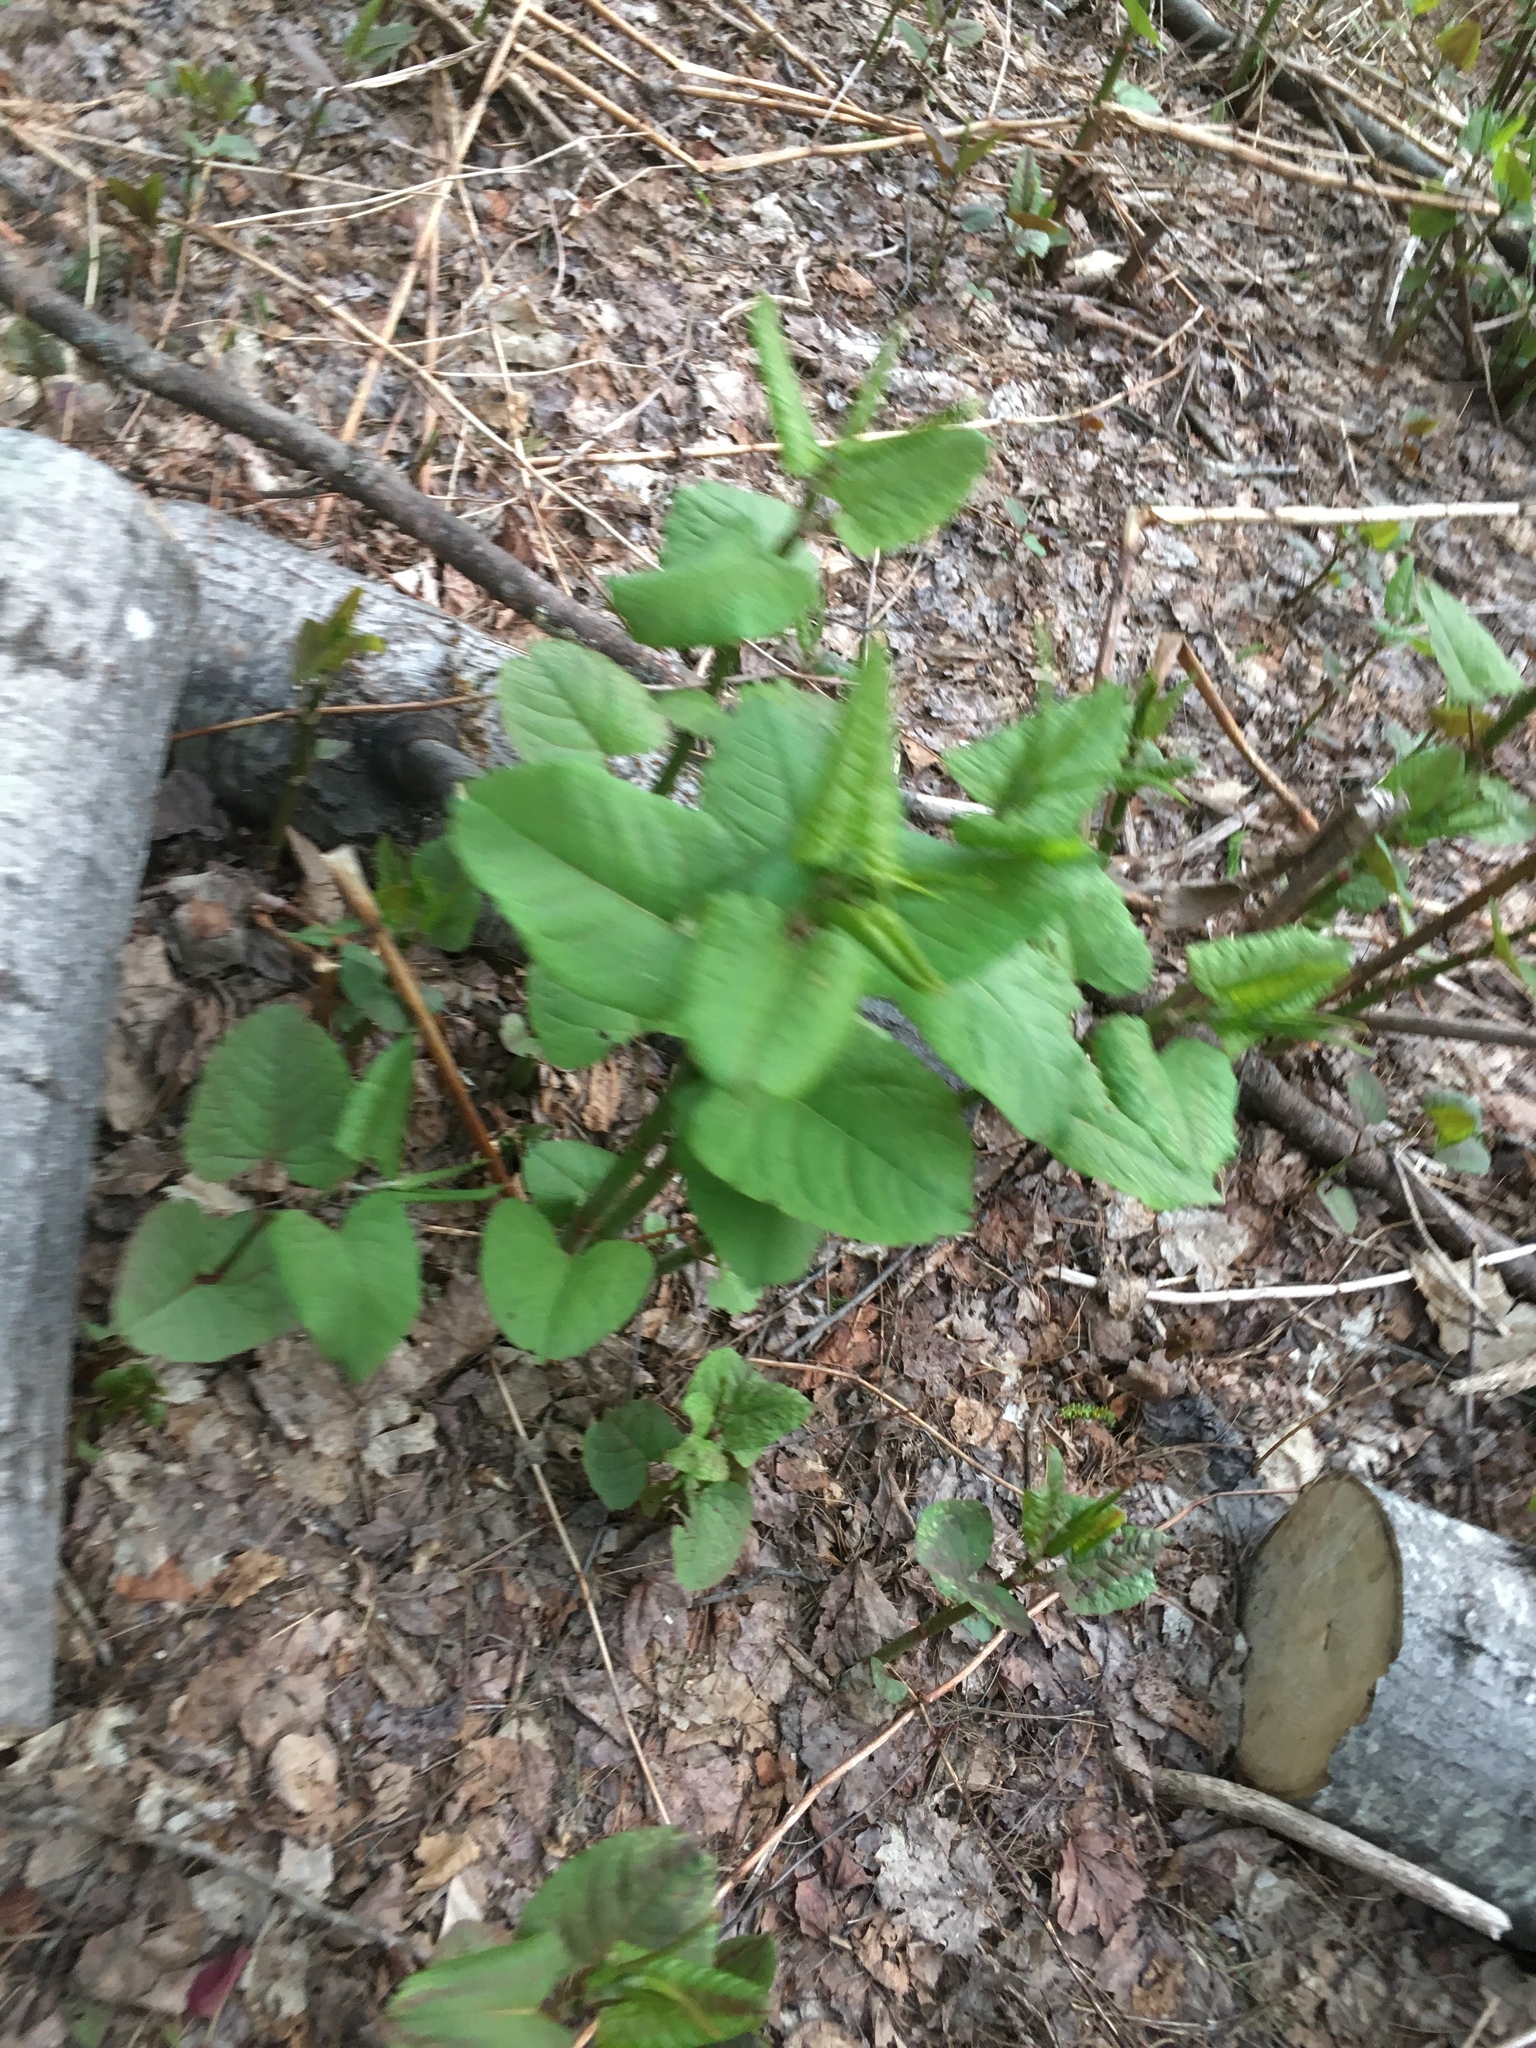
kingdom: Plantae
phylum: Tracheophyta
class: Magnoliopsida
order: Caryophyllales
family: Polygonaceae
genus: Reynoutria
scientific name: Reynoutria sachalinensis
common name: Giant knotweed
